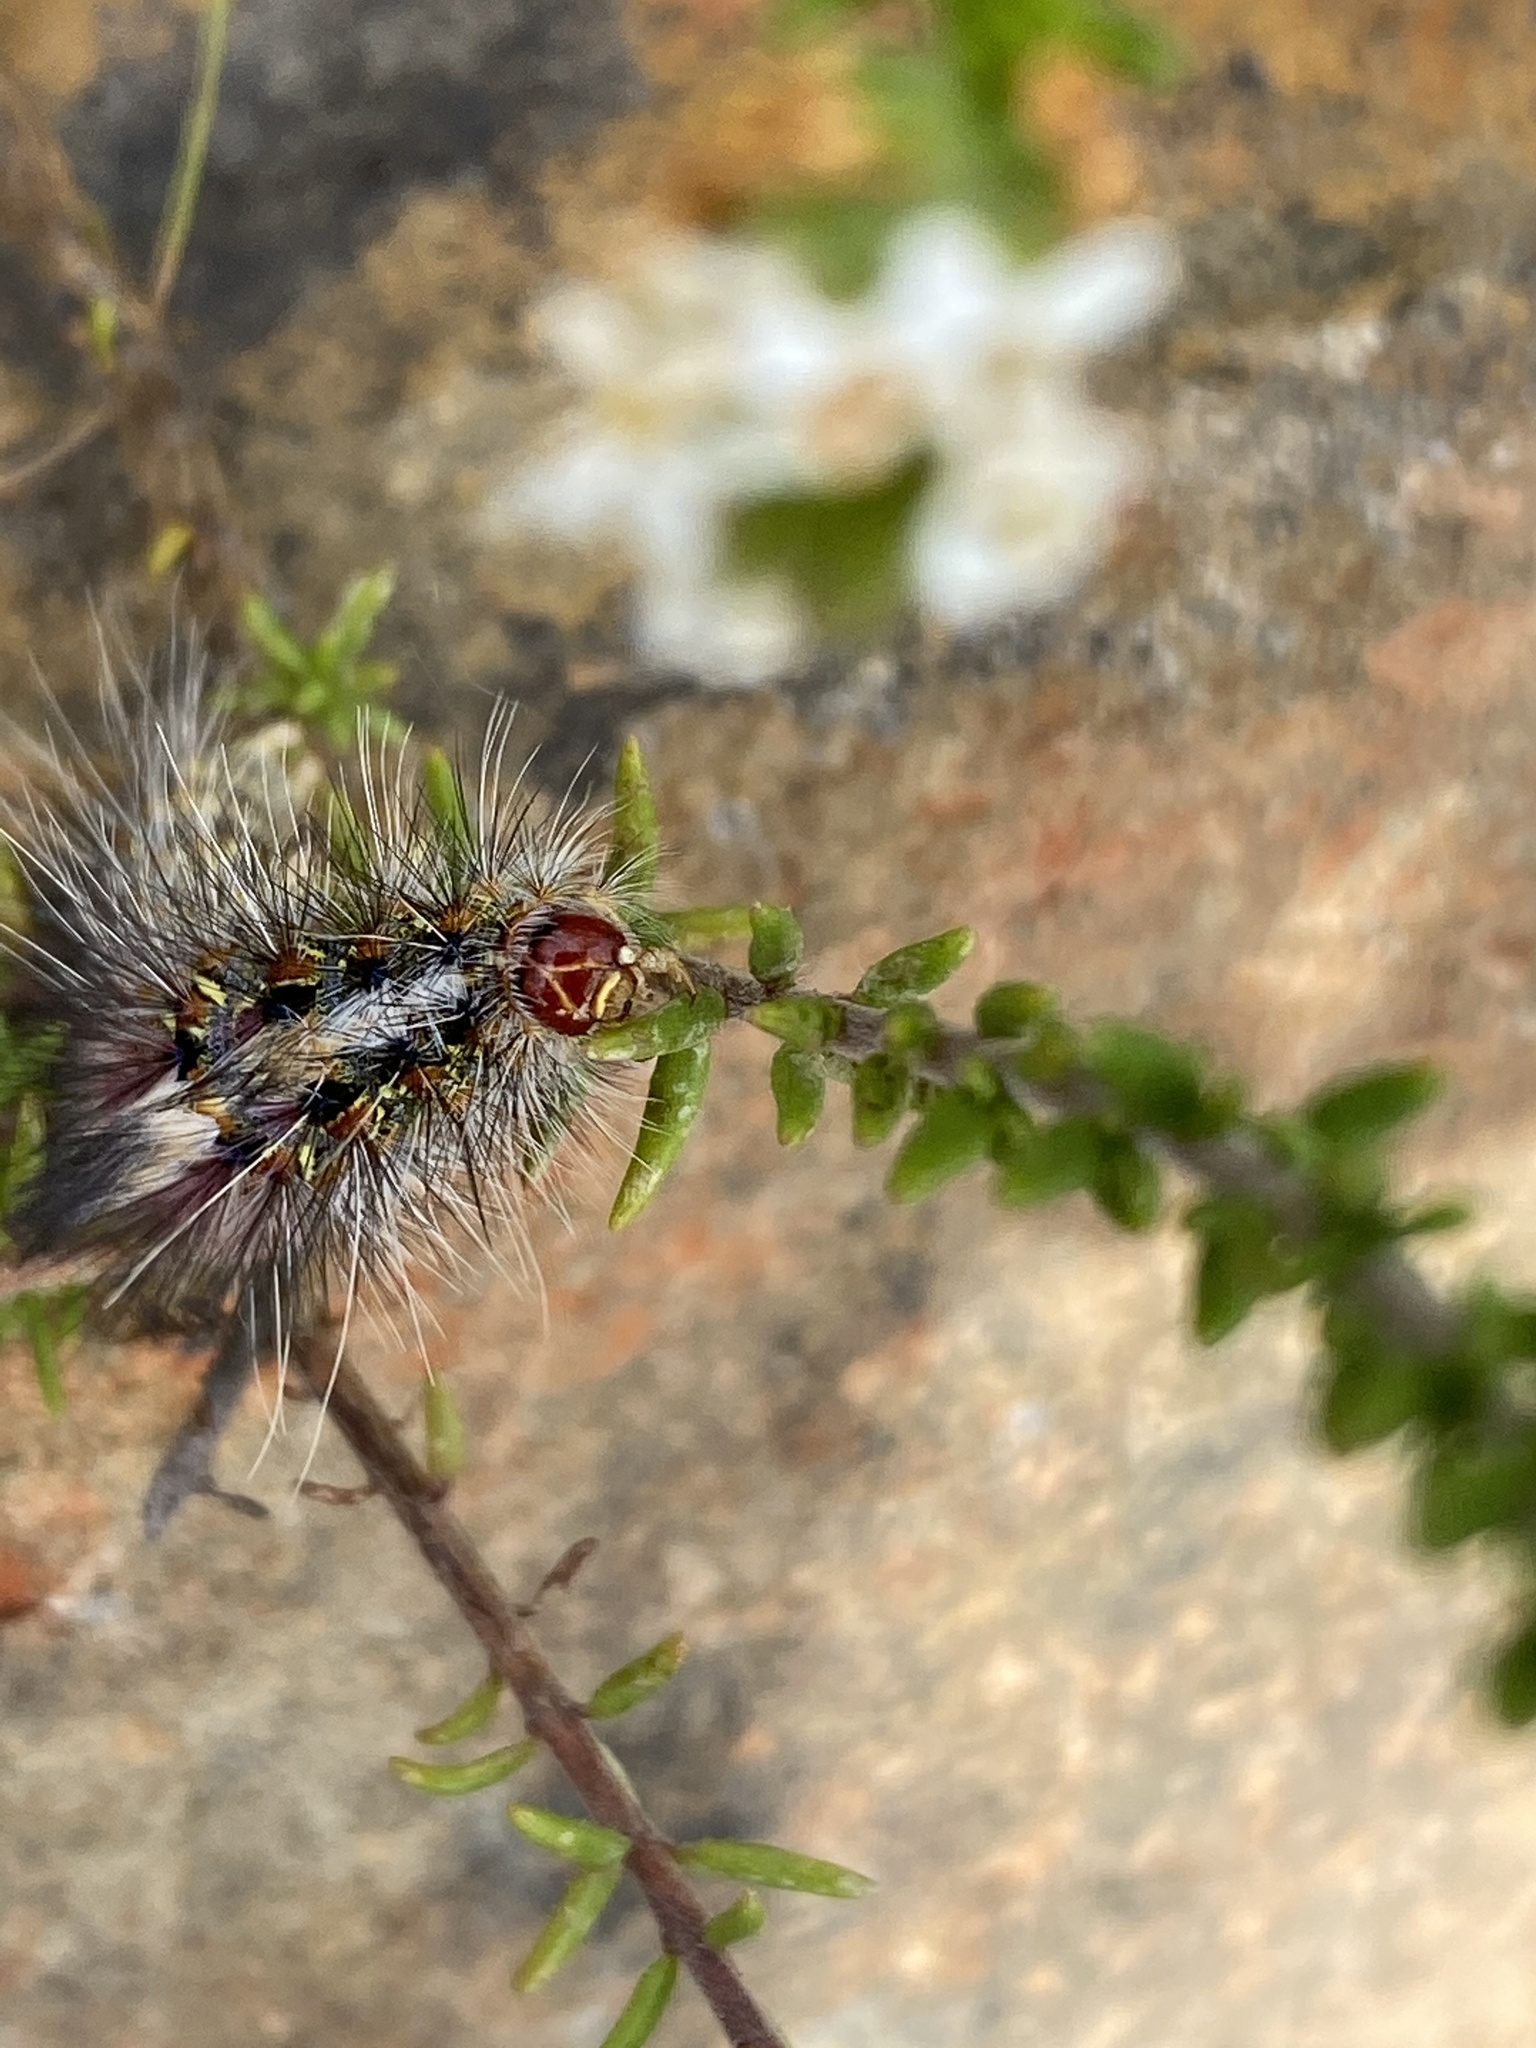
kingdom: Animalia
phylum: Arthropoda
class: Insecta
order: Lepidoptera
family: Erebidae
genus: Paralacydes
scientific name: Paralacydes vocula
